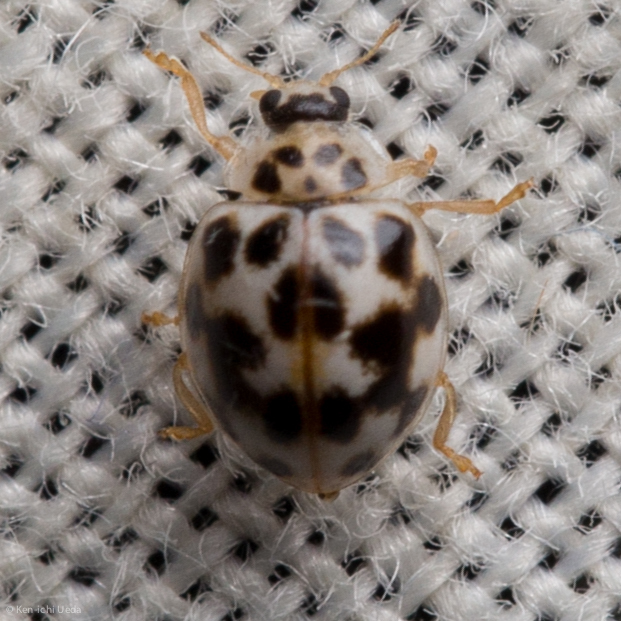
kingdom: Animalia
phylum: Arthropoda
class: Insecta
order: Coleoptera
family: Coccinellidae
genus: Psyllobora
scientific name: Psyllobora vigintimaculata
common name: Ladybird beetle
